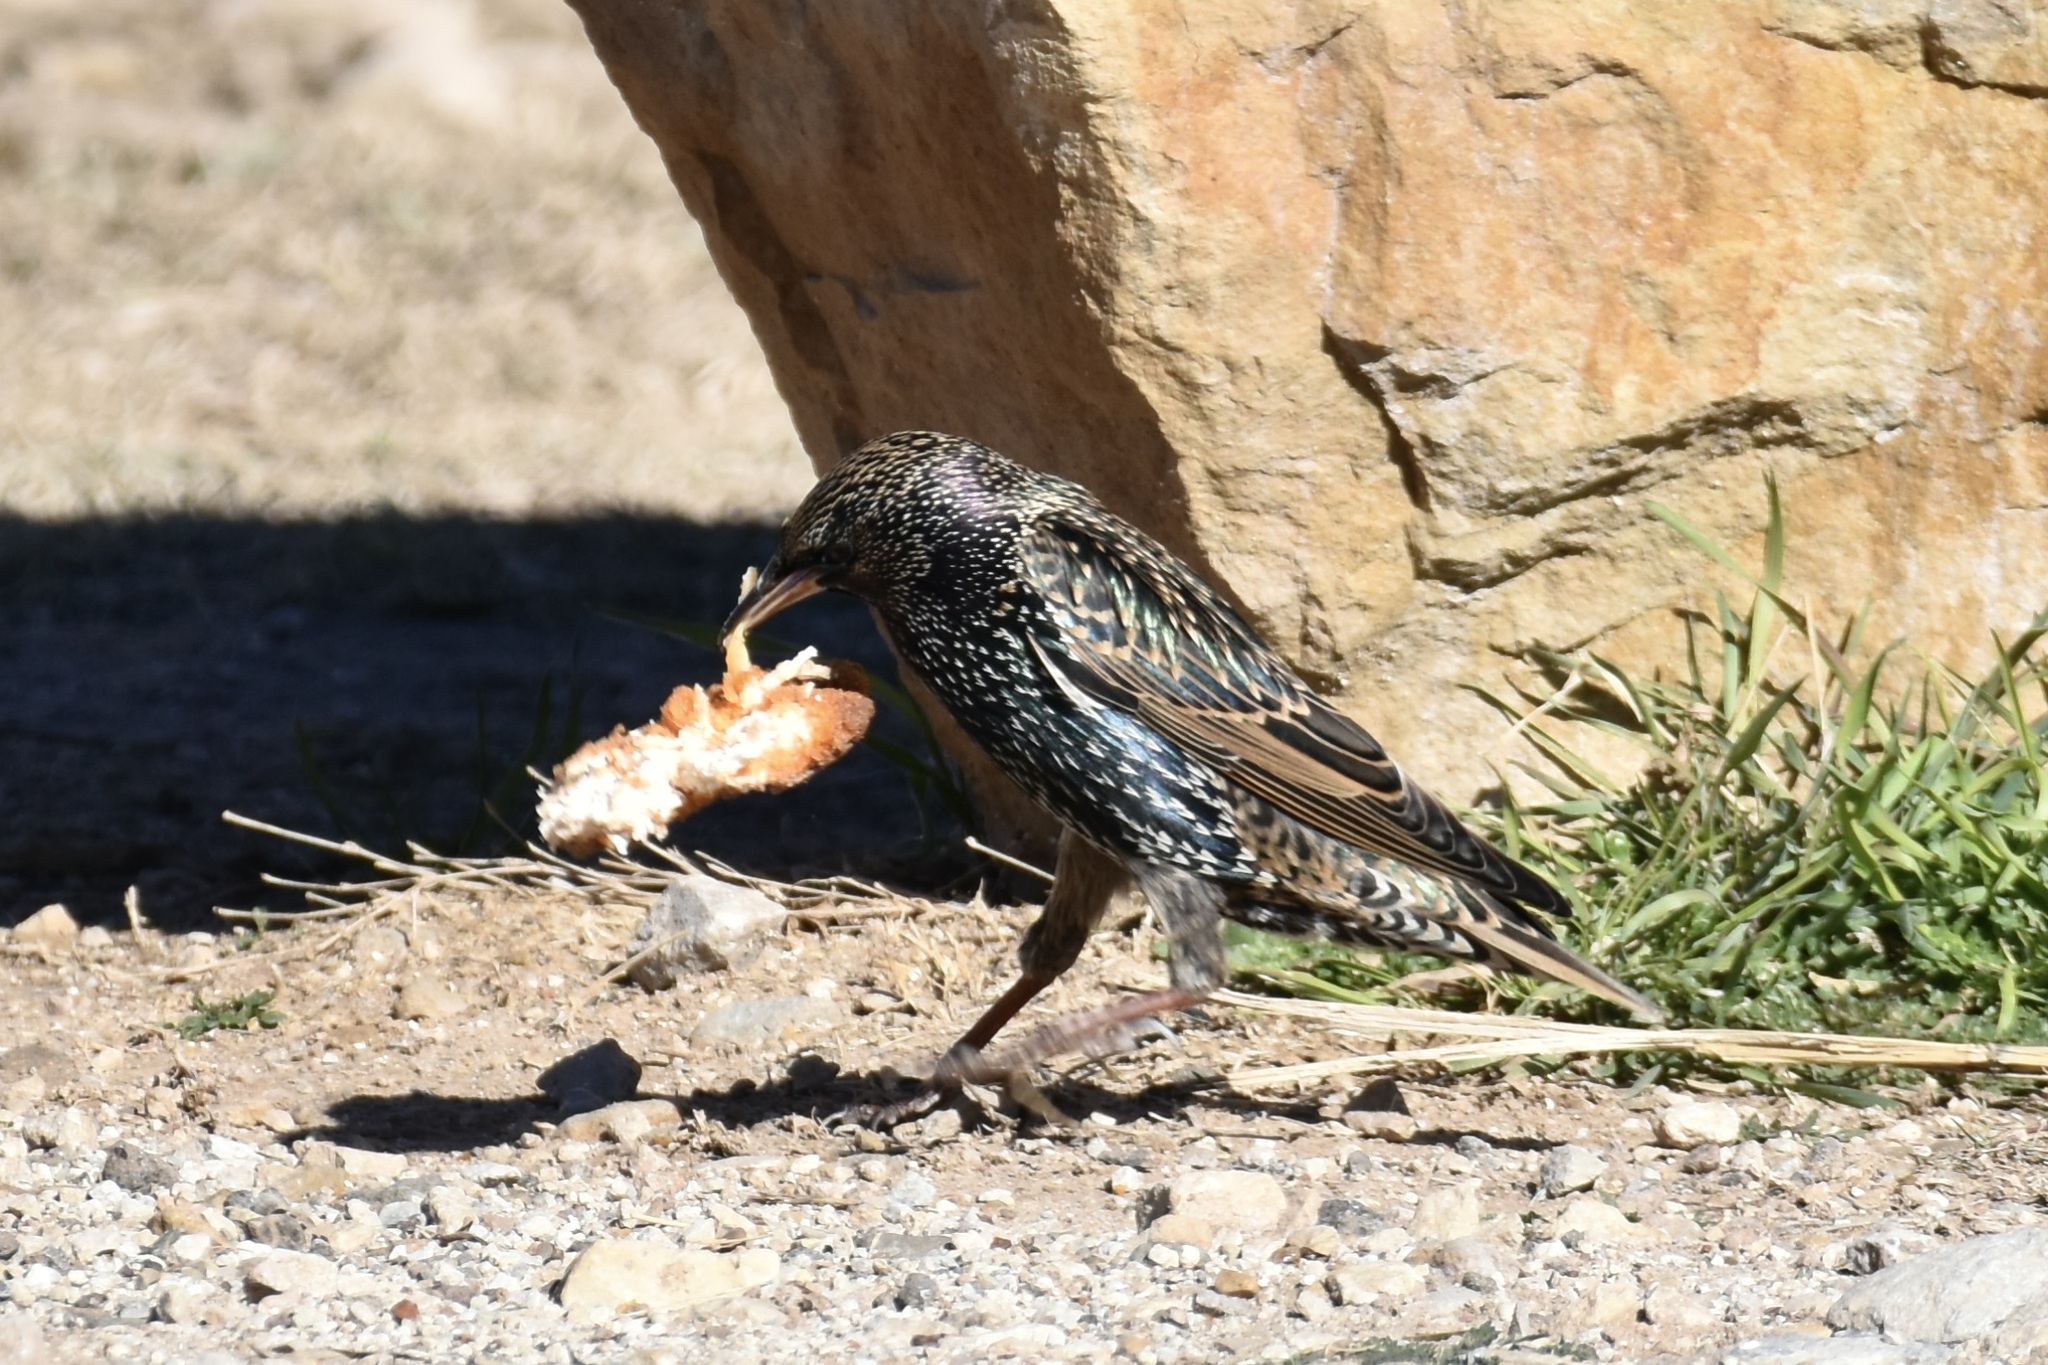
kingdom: Animalia
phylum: Chordata
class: Aves
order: Passeriformes
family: Sturnidae
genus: Sturnus
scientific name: Sturnus vulgaris
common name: Common starling
